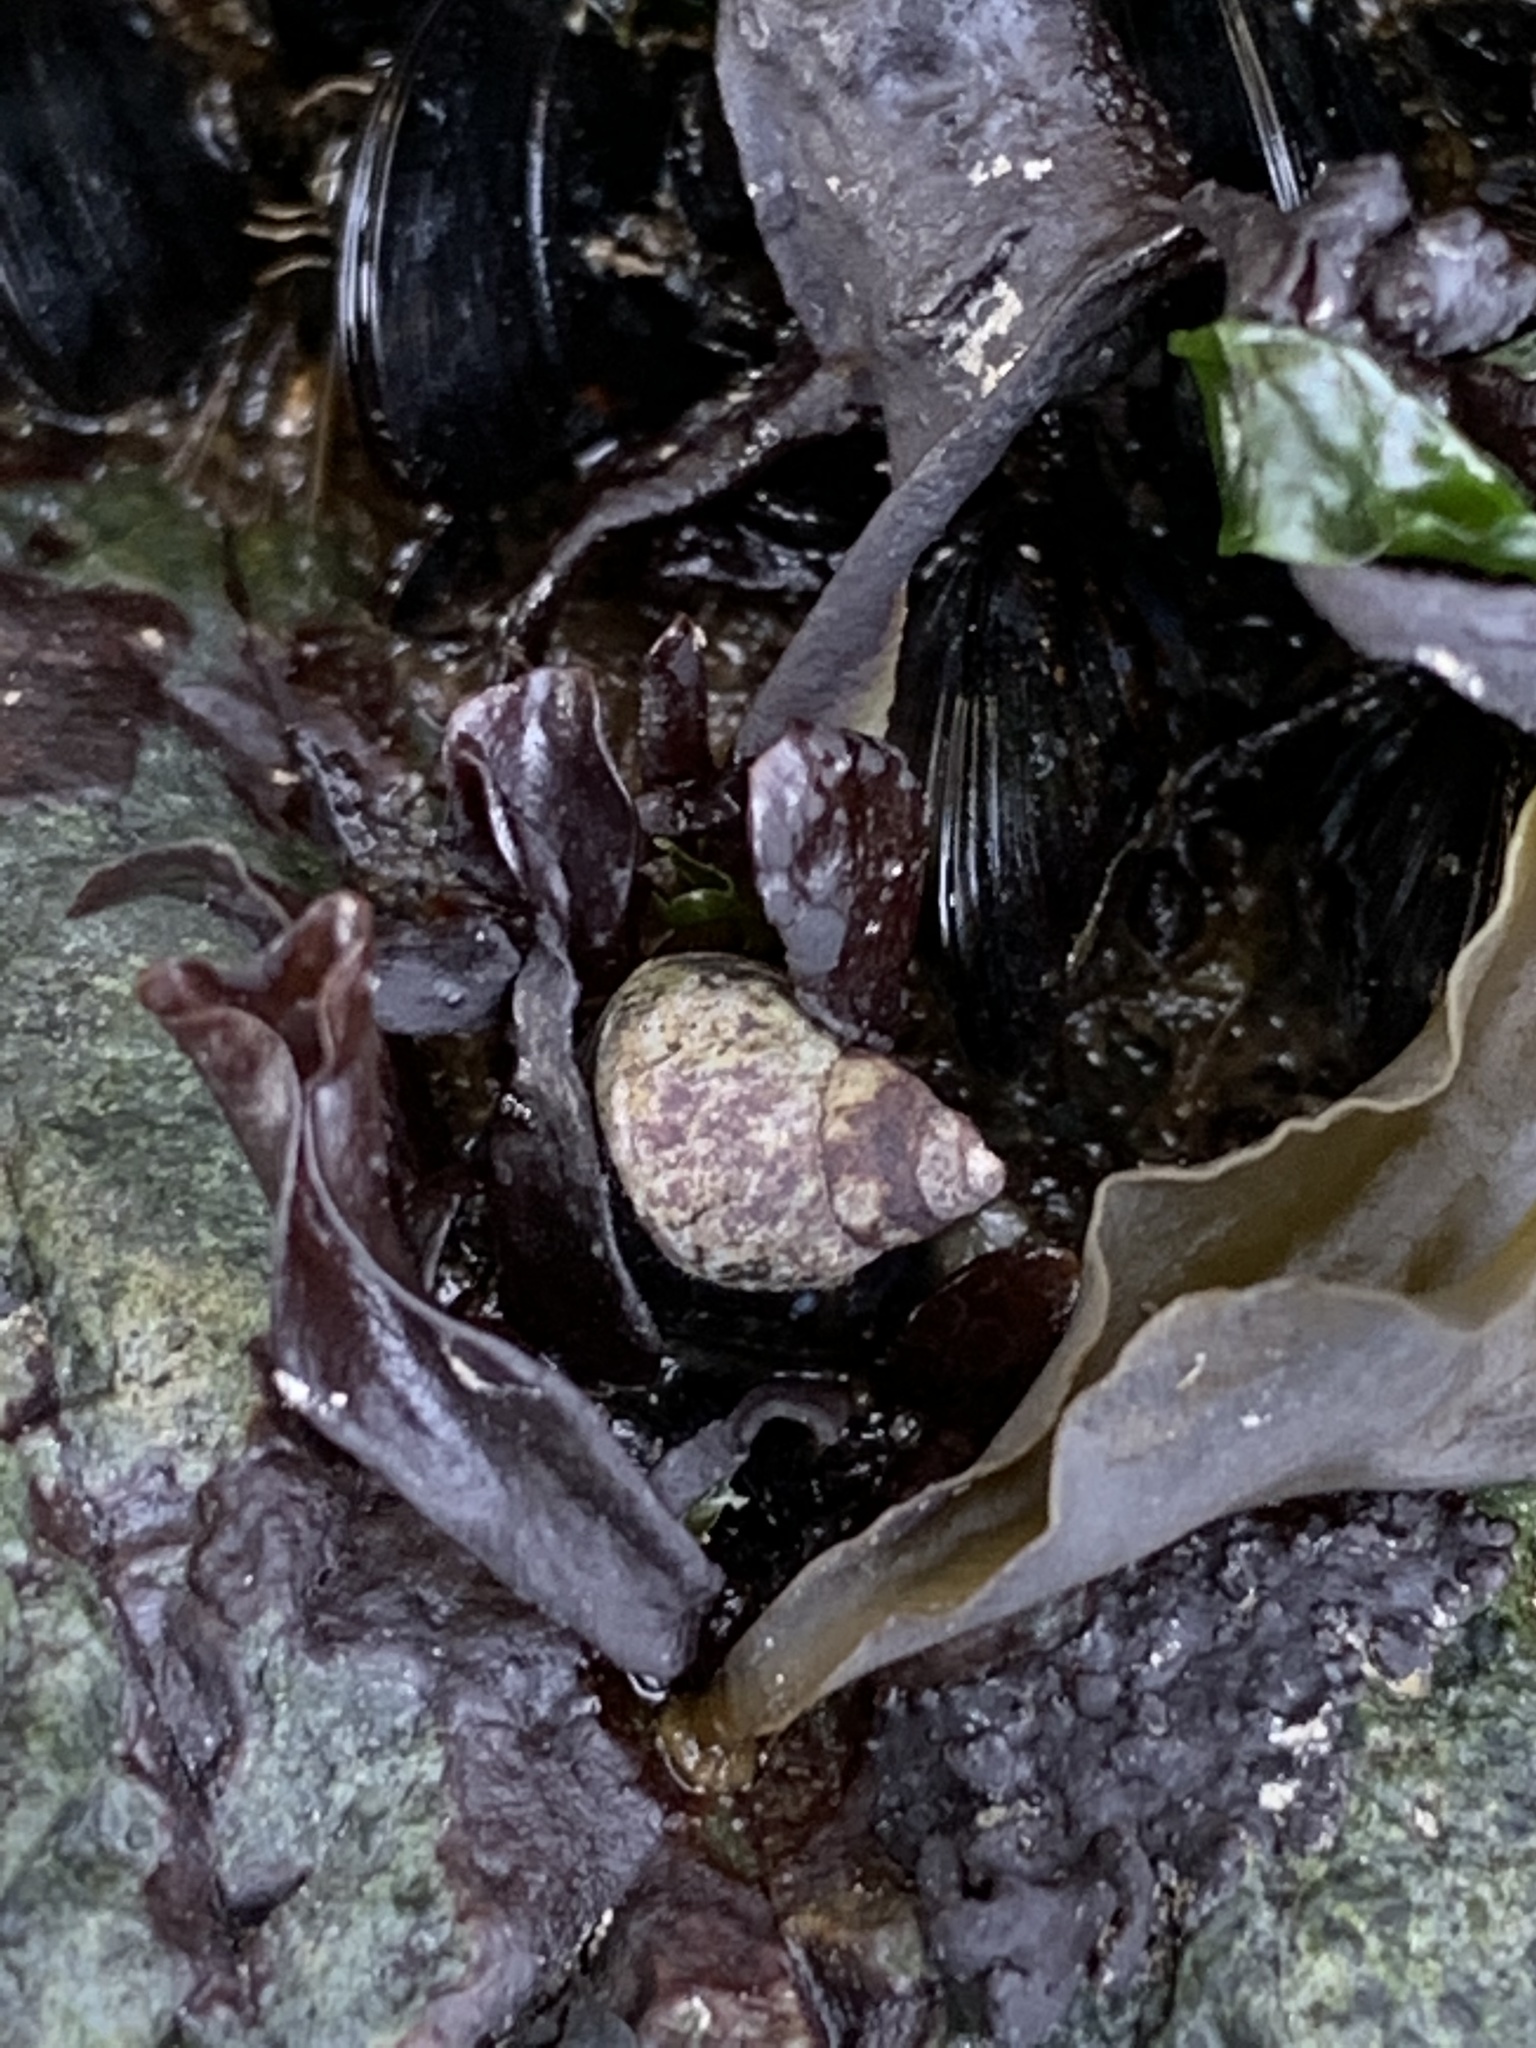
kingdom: Animalia
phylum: Mollusca
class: Gastropoda
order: Neogastropoda
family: Muricidae
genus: Nucella
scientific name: Nucella lamellosa
